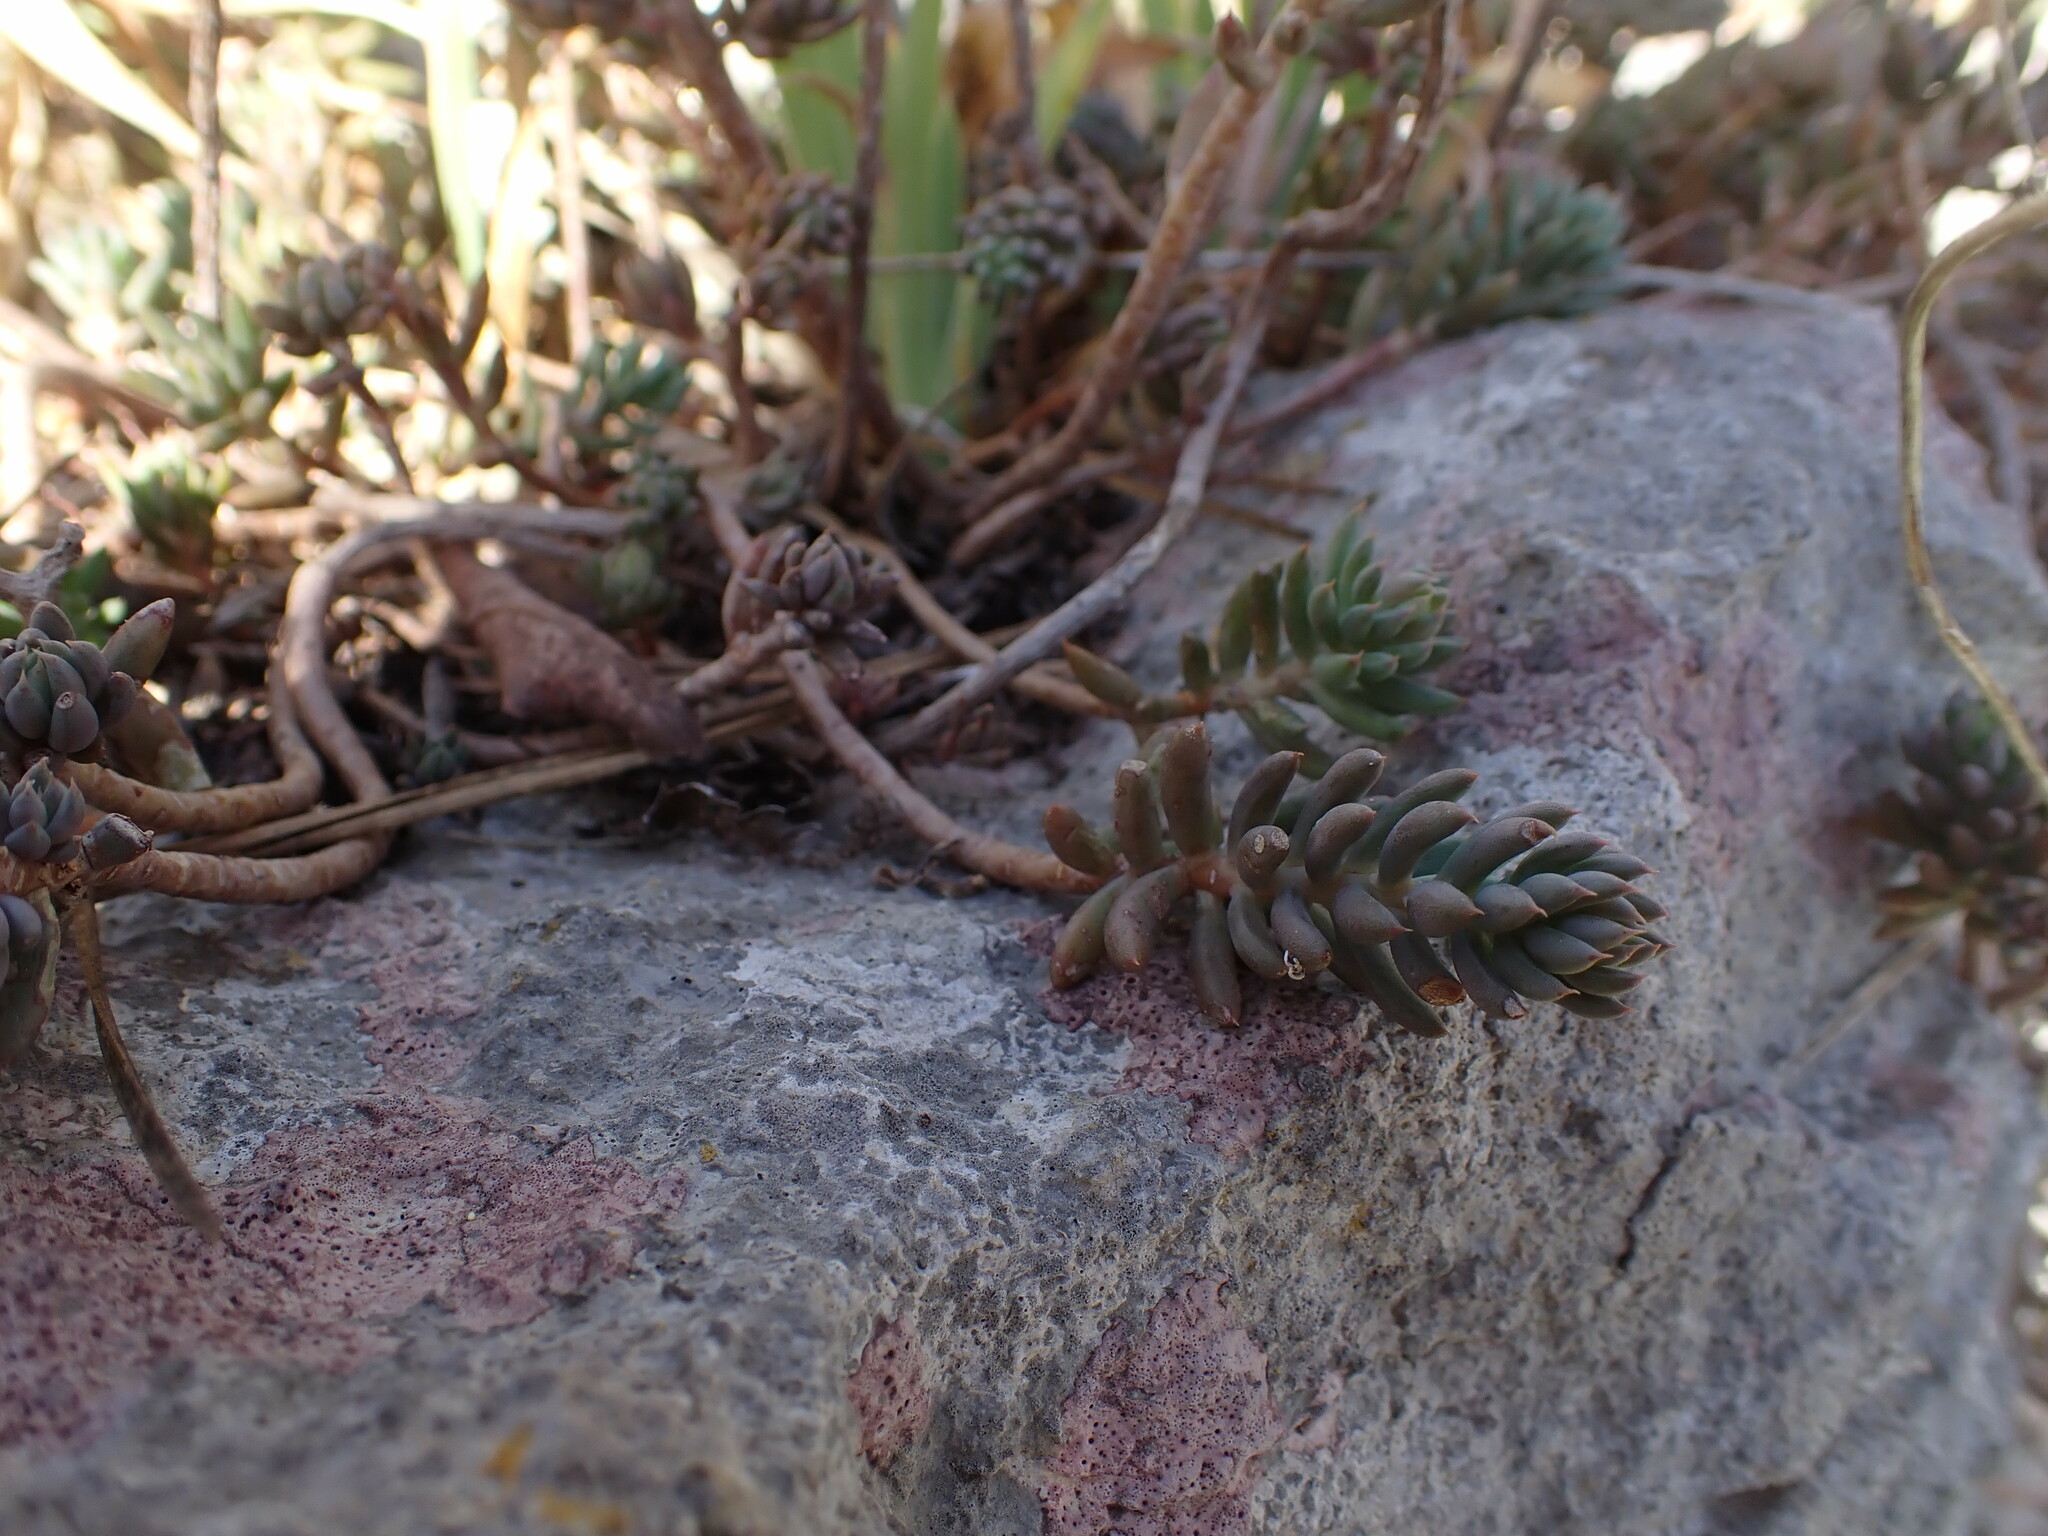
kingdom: Plantae
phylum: Tracheophyta
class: Magnoliopsida
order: Saxifragales
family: Crassulaceae
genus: Petrosedum
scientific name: Petrosedum sediforme
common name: Pale stonecrop
